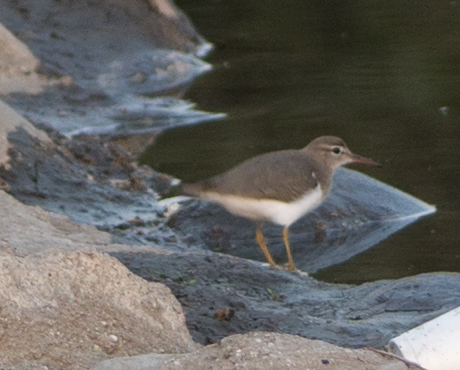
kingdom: Animalia
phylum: Chordata
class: Aves
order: Charadriiformes
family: Scolopacidae
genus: Actitis
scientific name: Actitis macularius
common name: Spotted sandpiper
